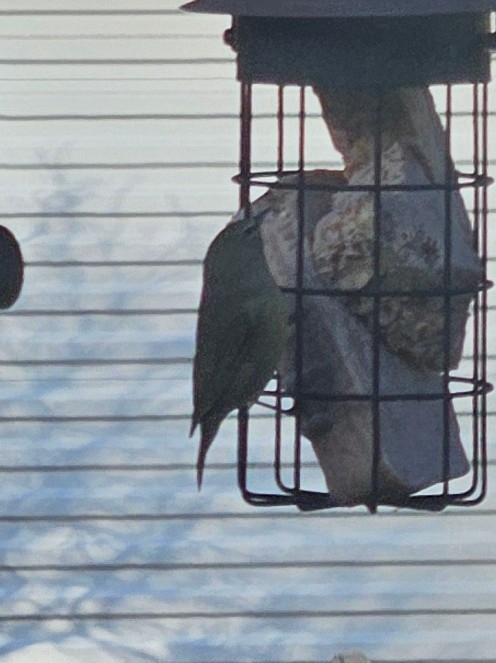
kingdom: Animalia
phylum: Chordata
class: Aves
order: Passeriformes
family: Parulidae
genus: Leiothlypis
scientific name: Leiothlypis celata
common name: Orange-crowned warbler
